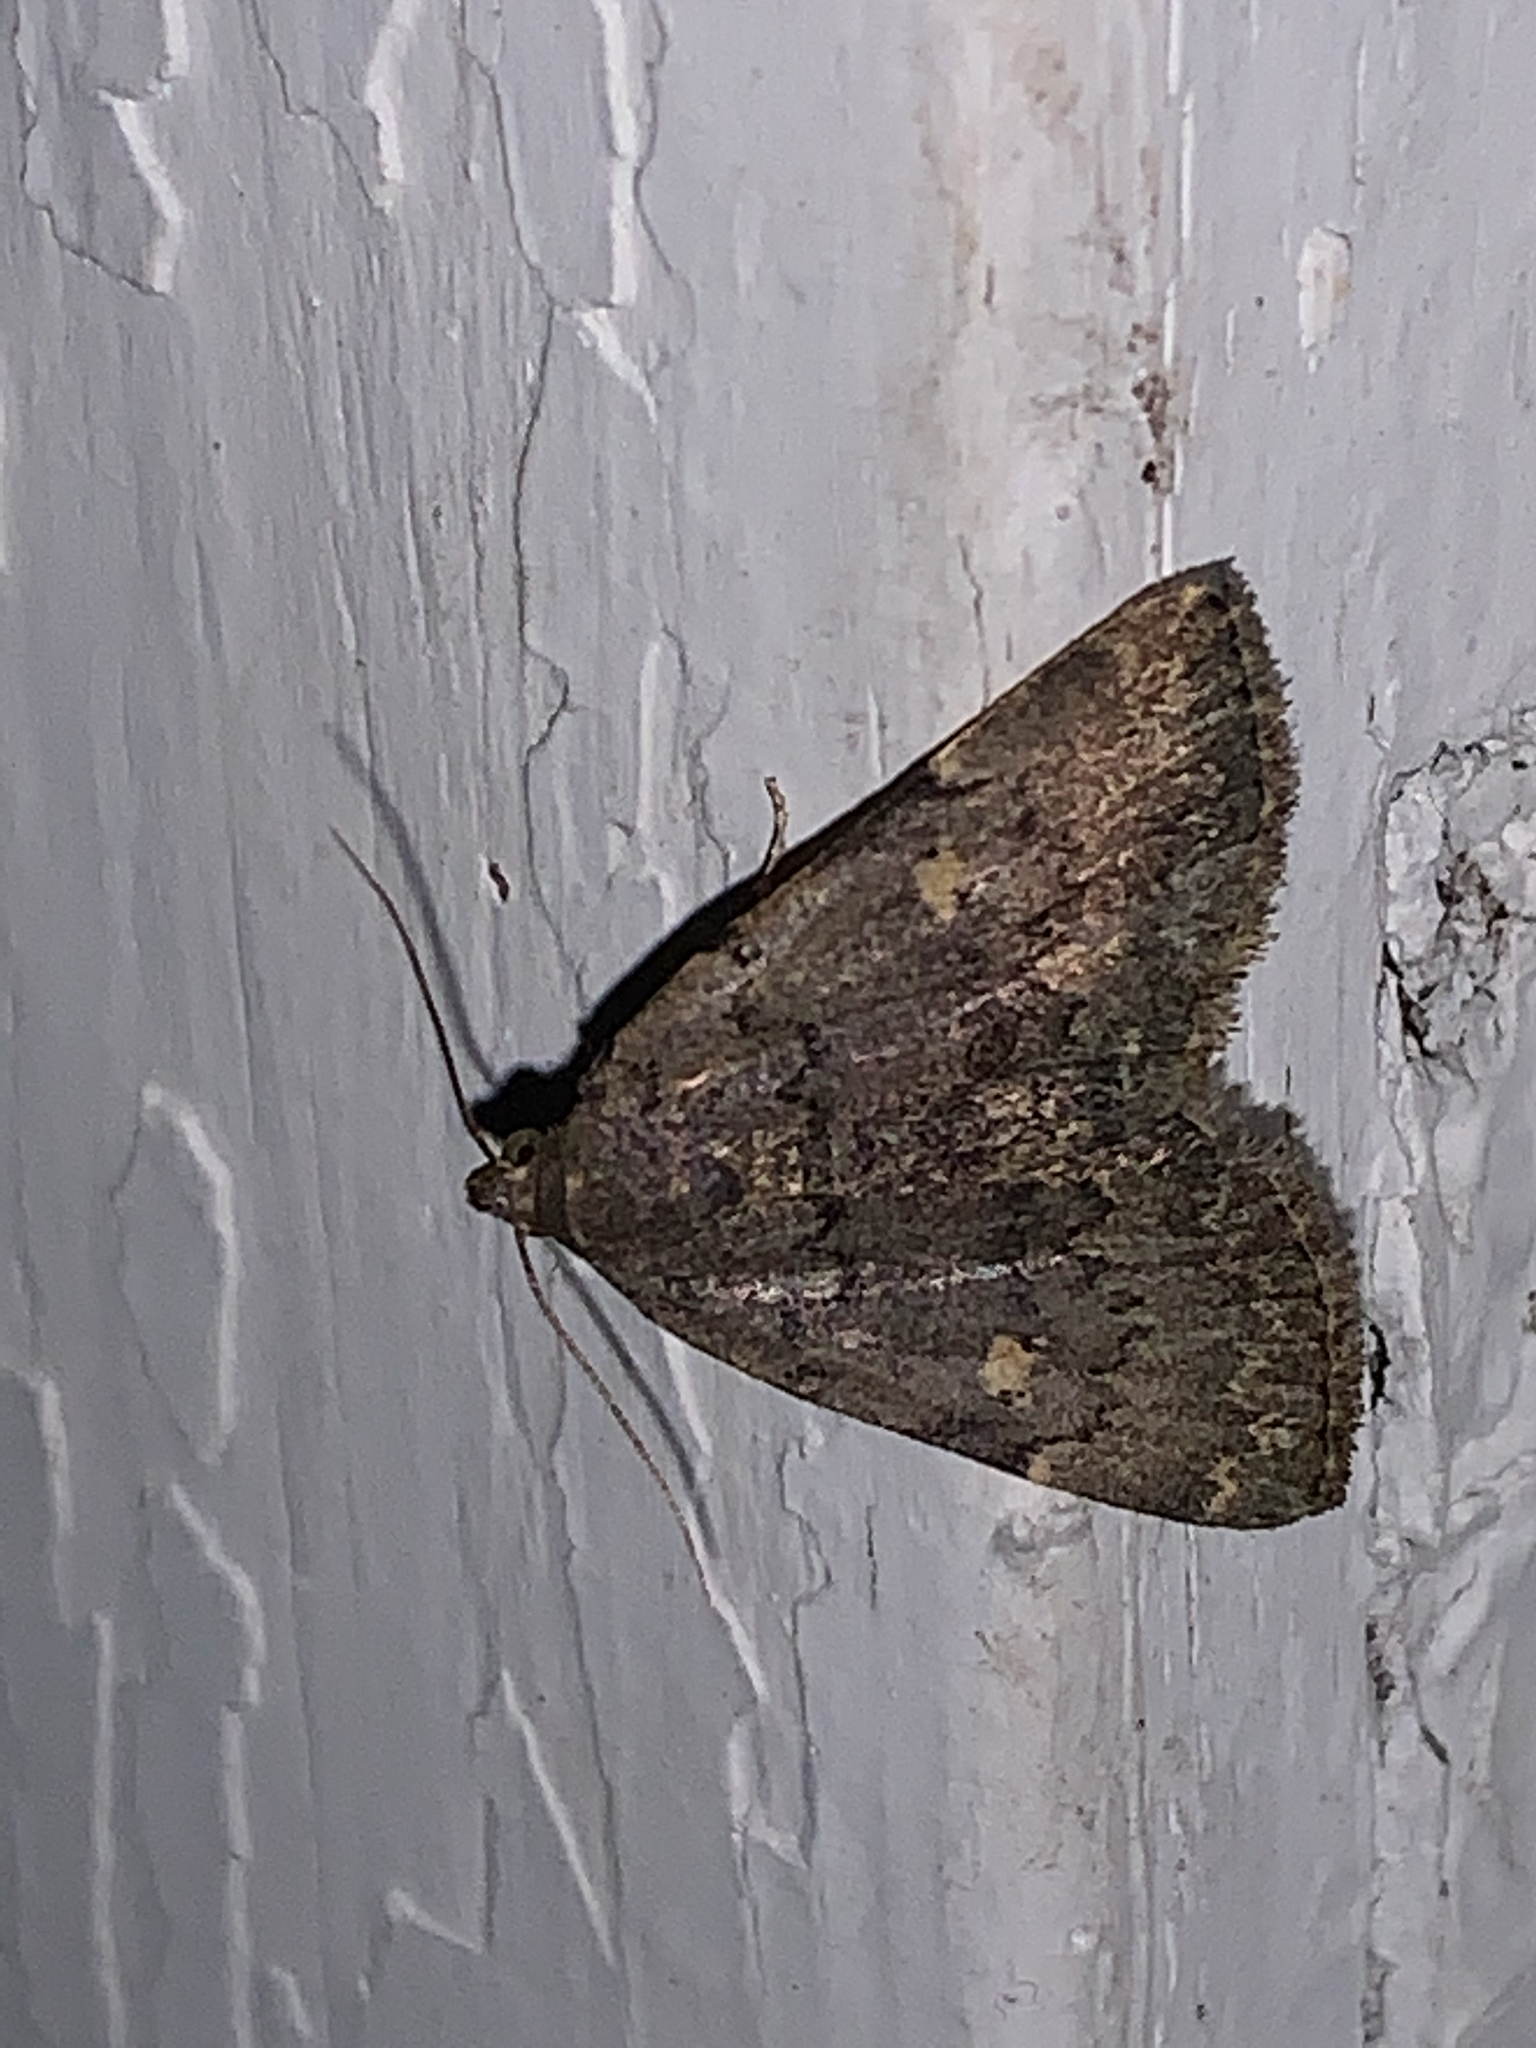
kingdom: Animalia
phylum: Arthropoda
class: Insecta
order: Lepidoptera
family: Erebidae
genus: Idia
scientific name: Idia aemula
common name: Common idia moth
